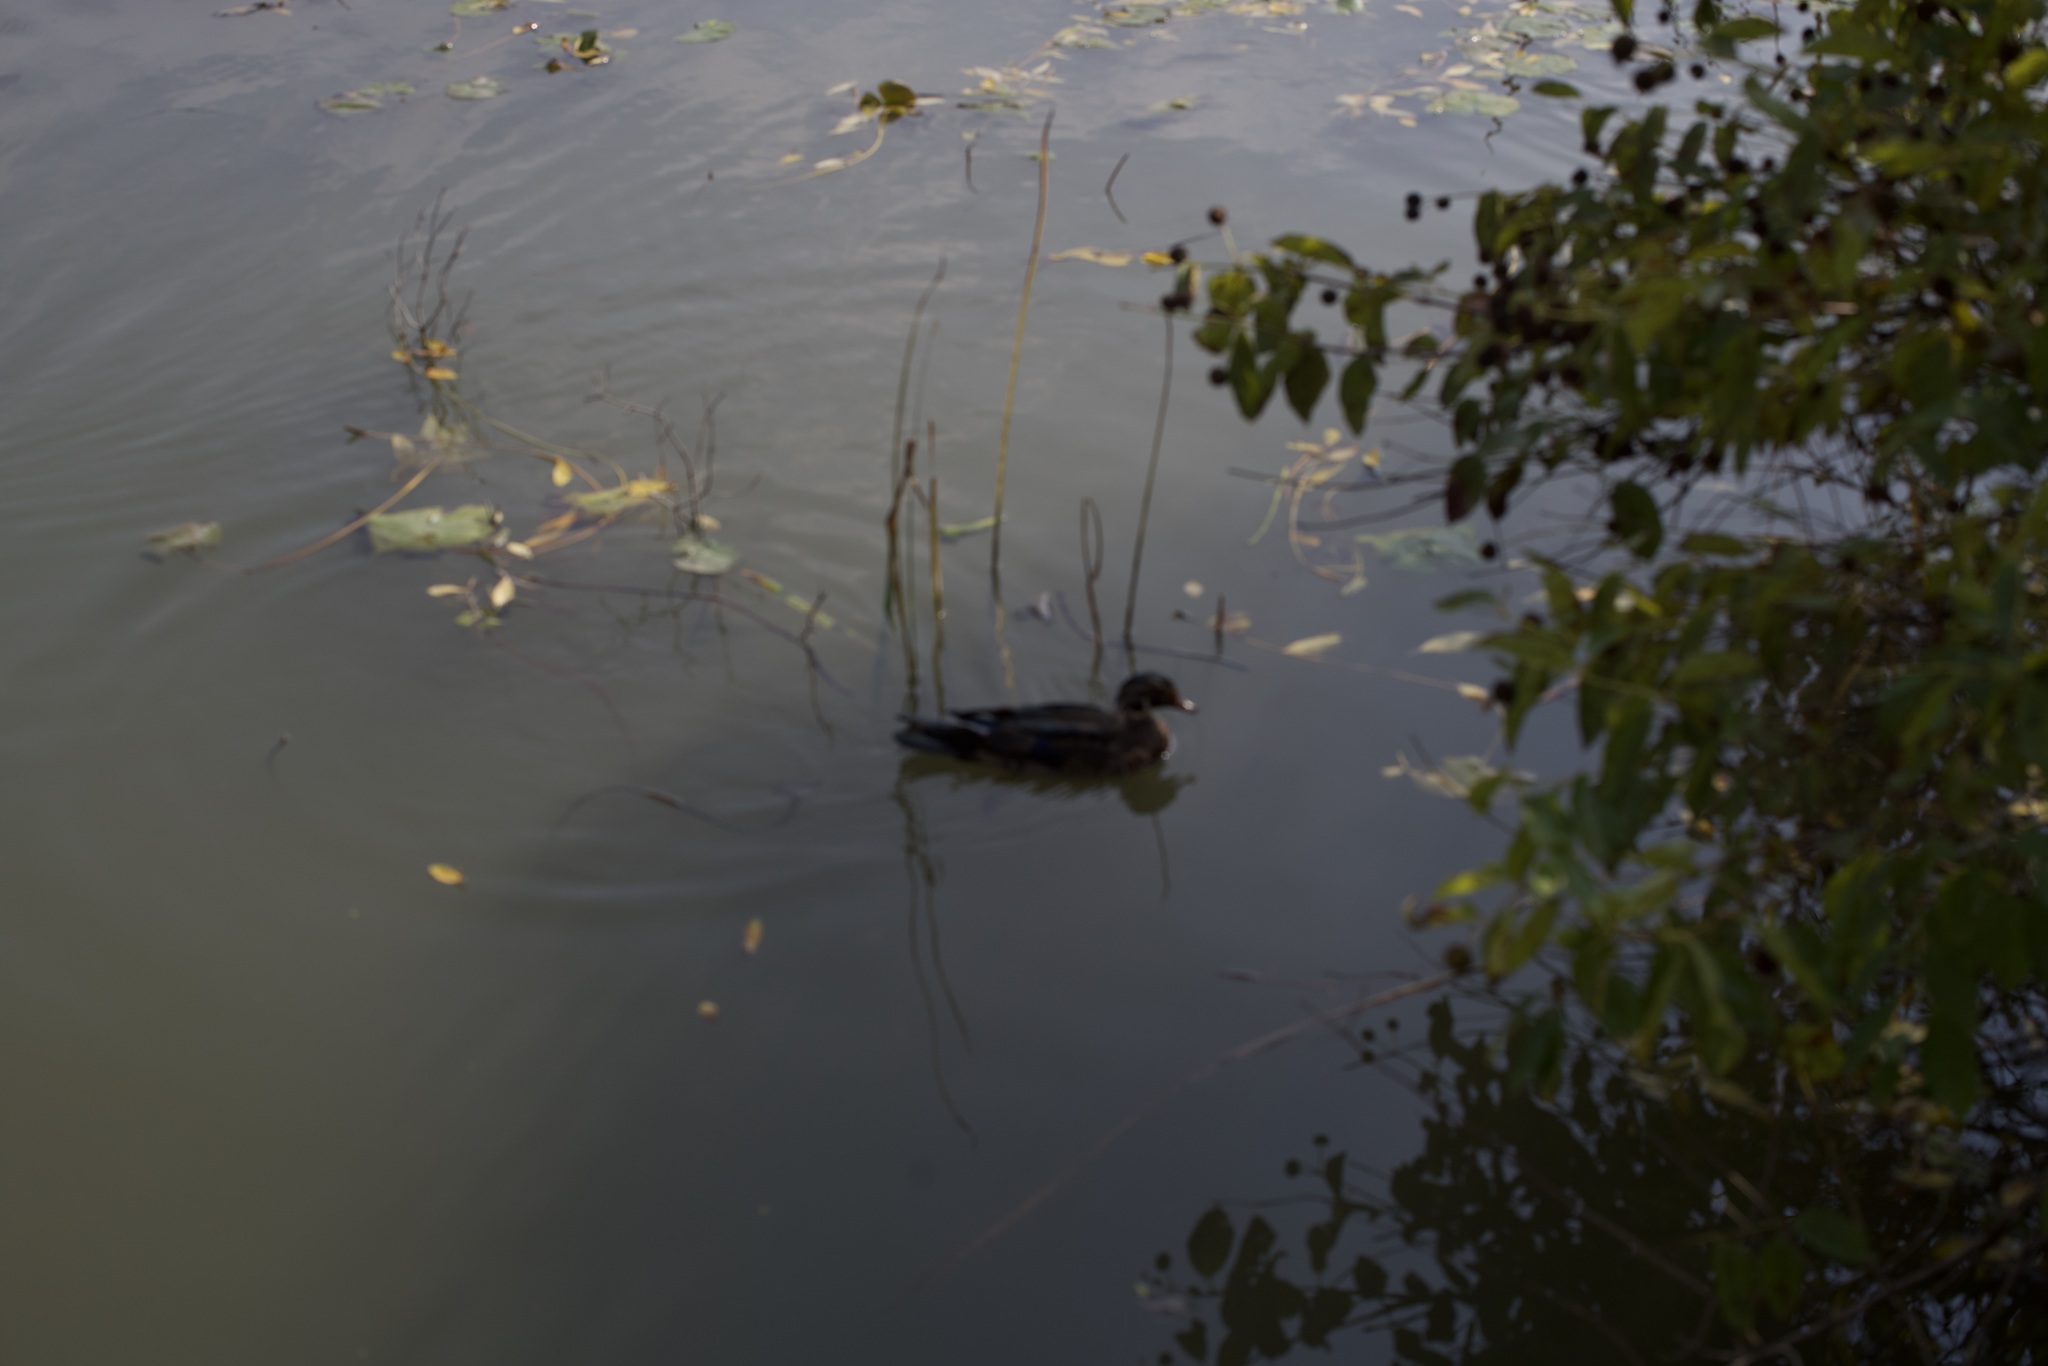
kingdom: Animalia
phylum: Chordata
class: Aves
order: Anseriformes
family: Anatidae
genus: Aix
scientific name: Aix sponsa
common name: Wood duck
